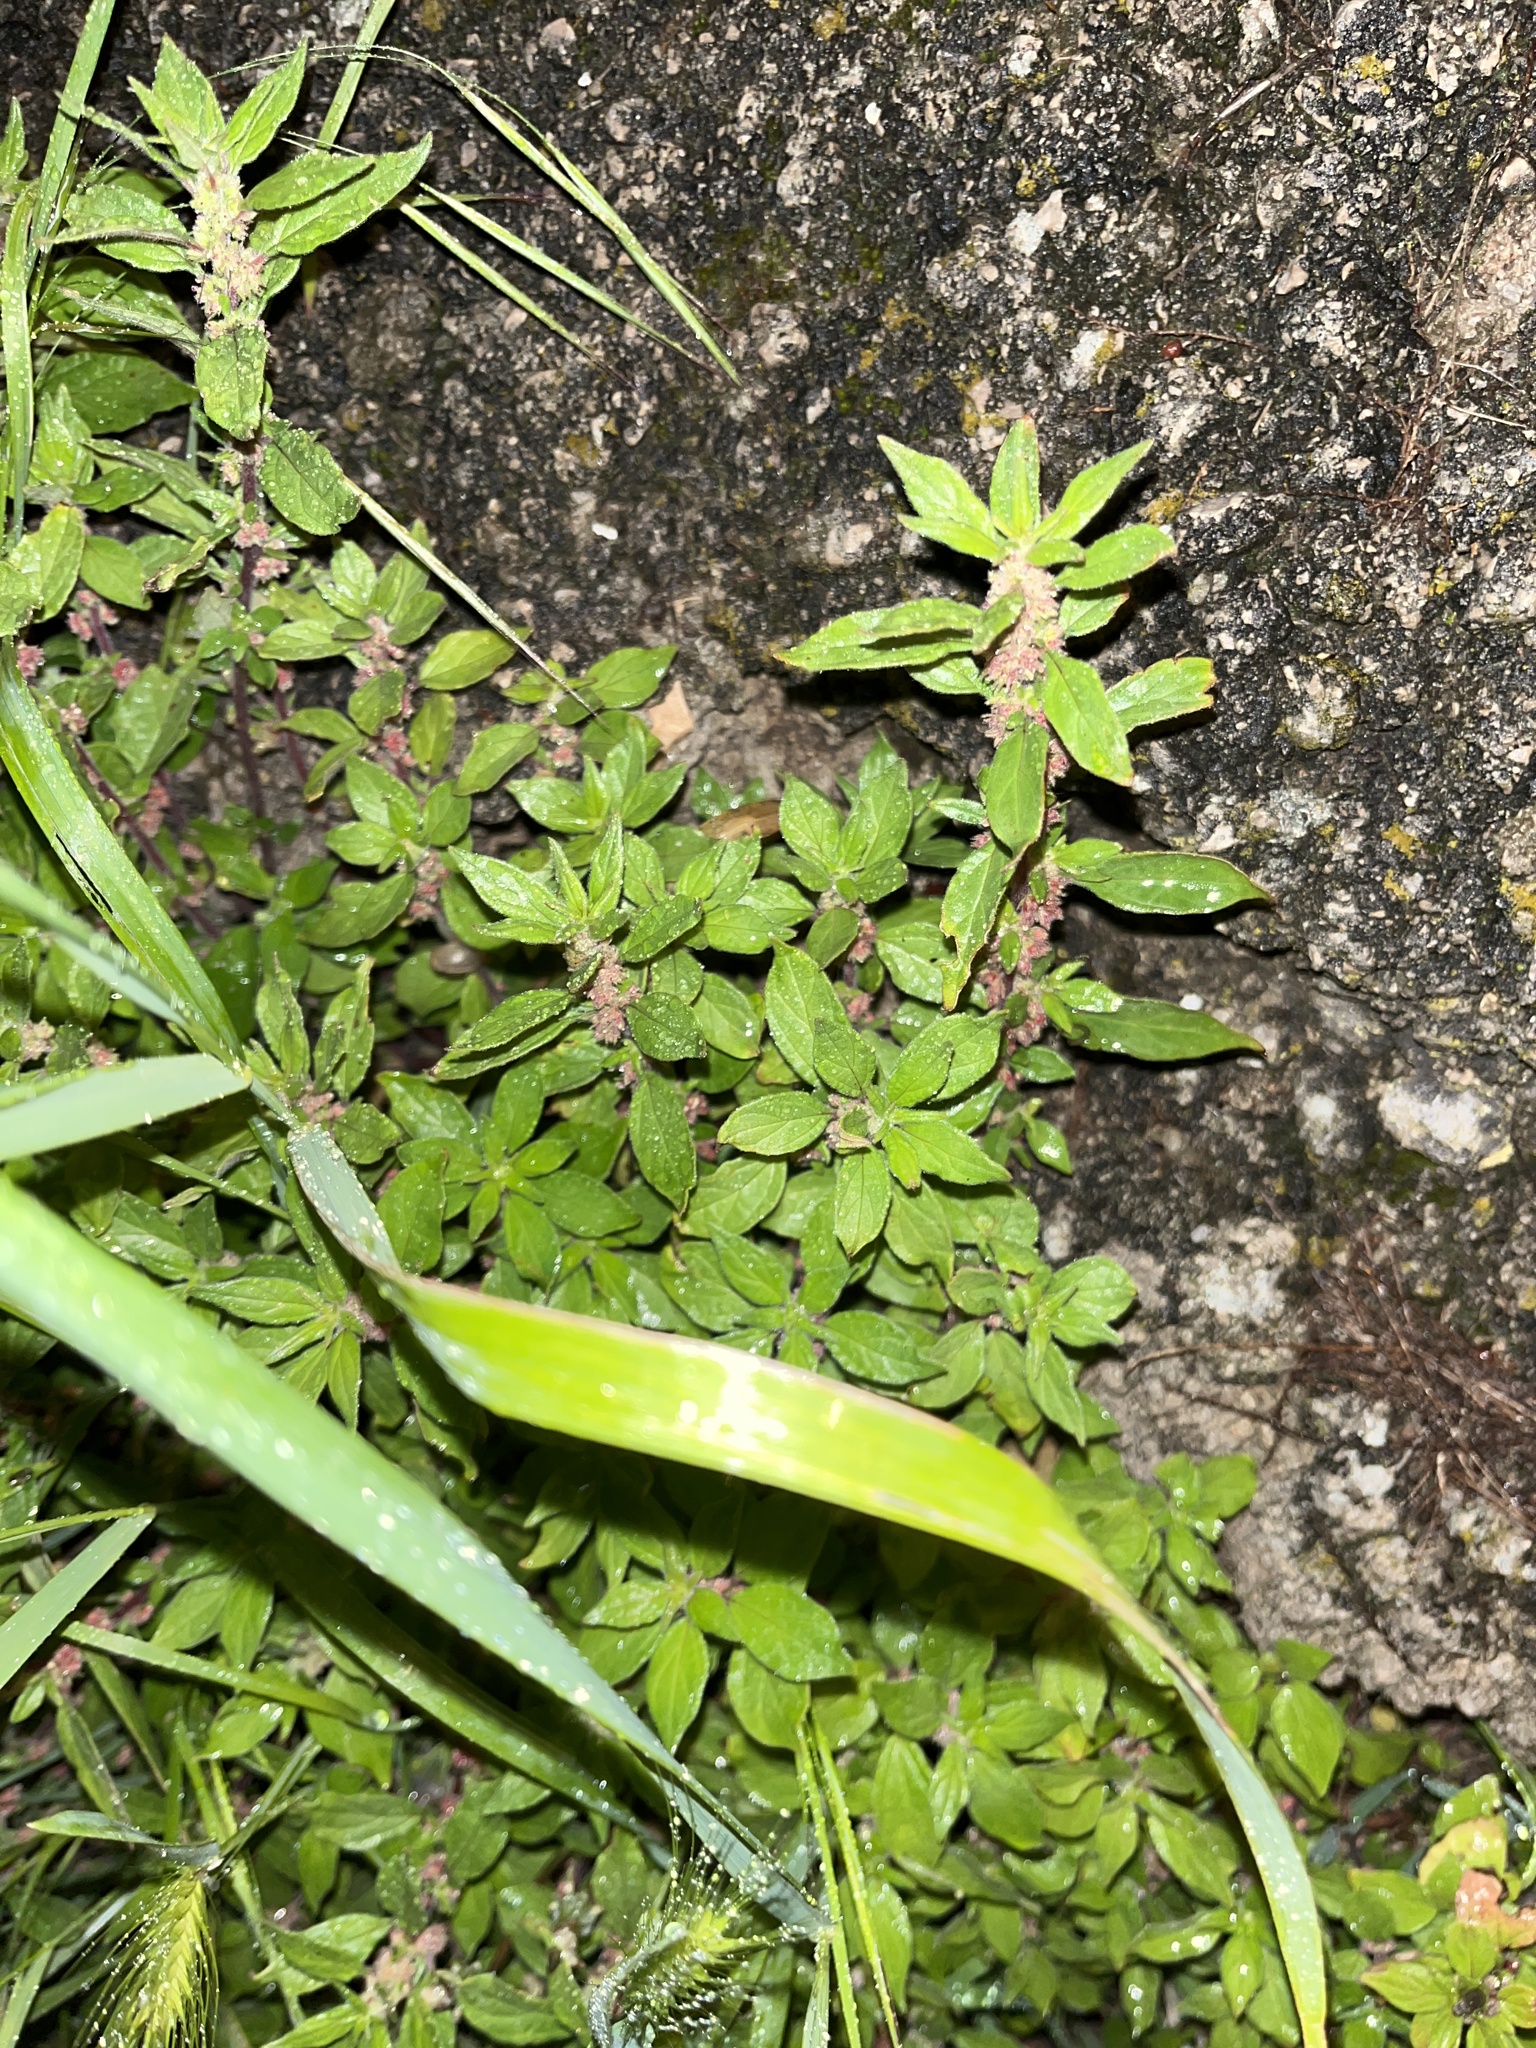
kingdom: Plantae
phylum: Tracheophyta
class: Magnoliopsida
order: Rosales
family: Urticaceae
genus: Parietaria
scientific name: Parietaria judaica
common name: Pellitory-of-the-wall
